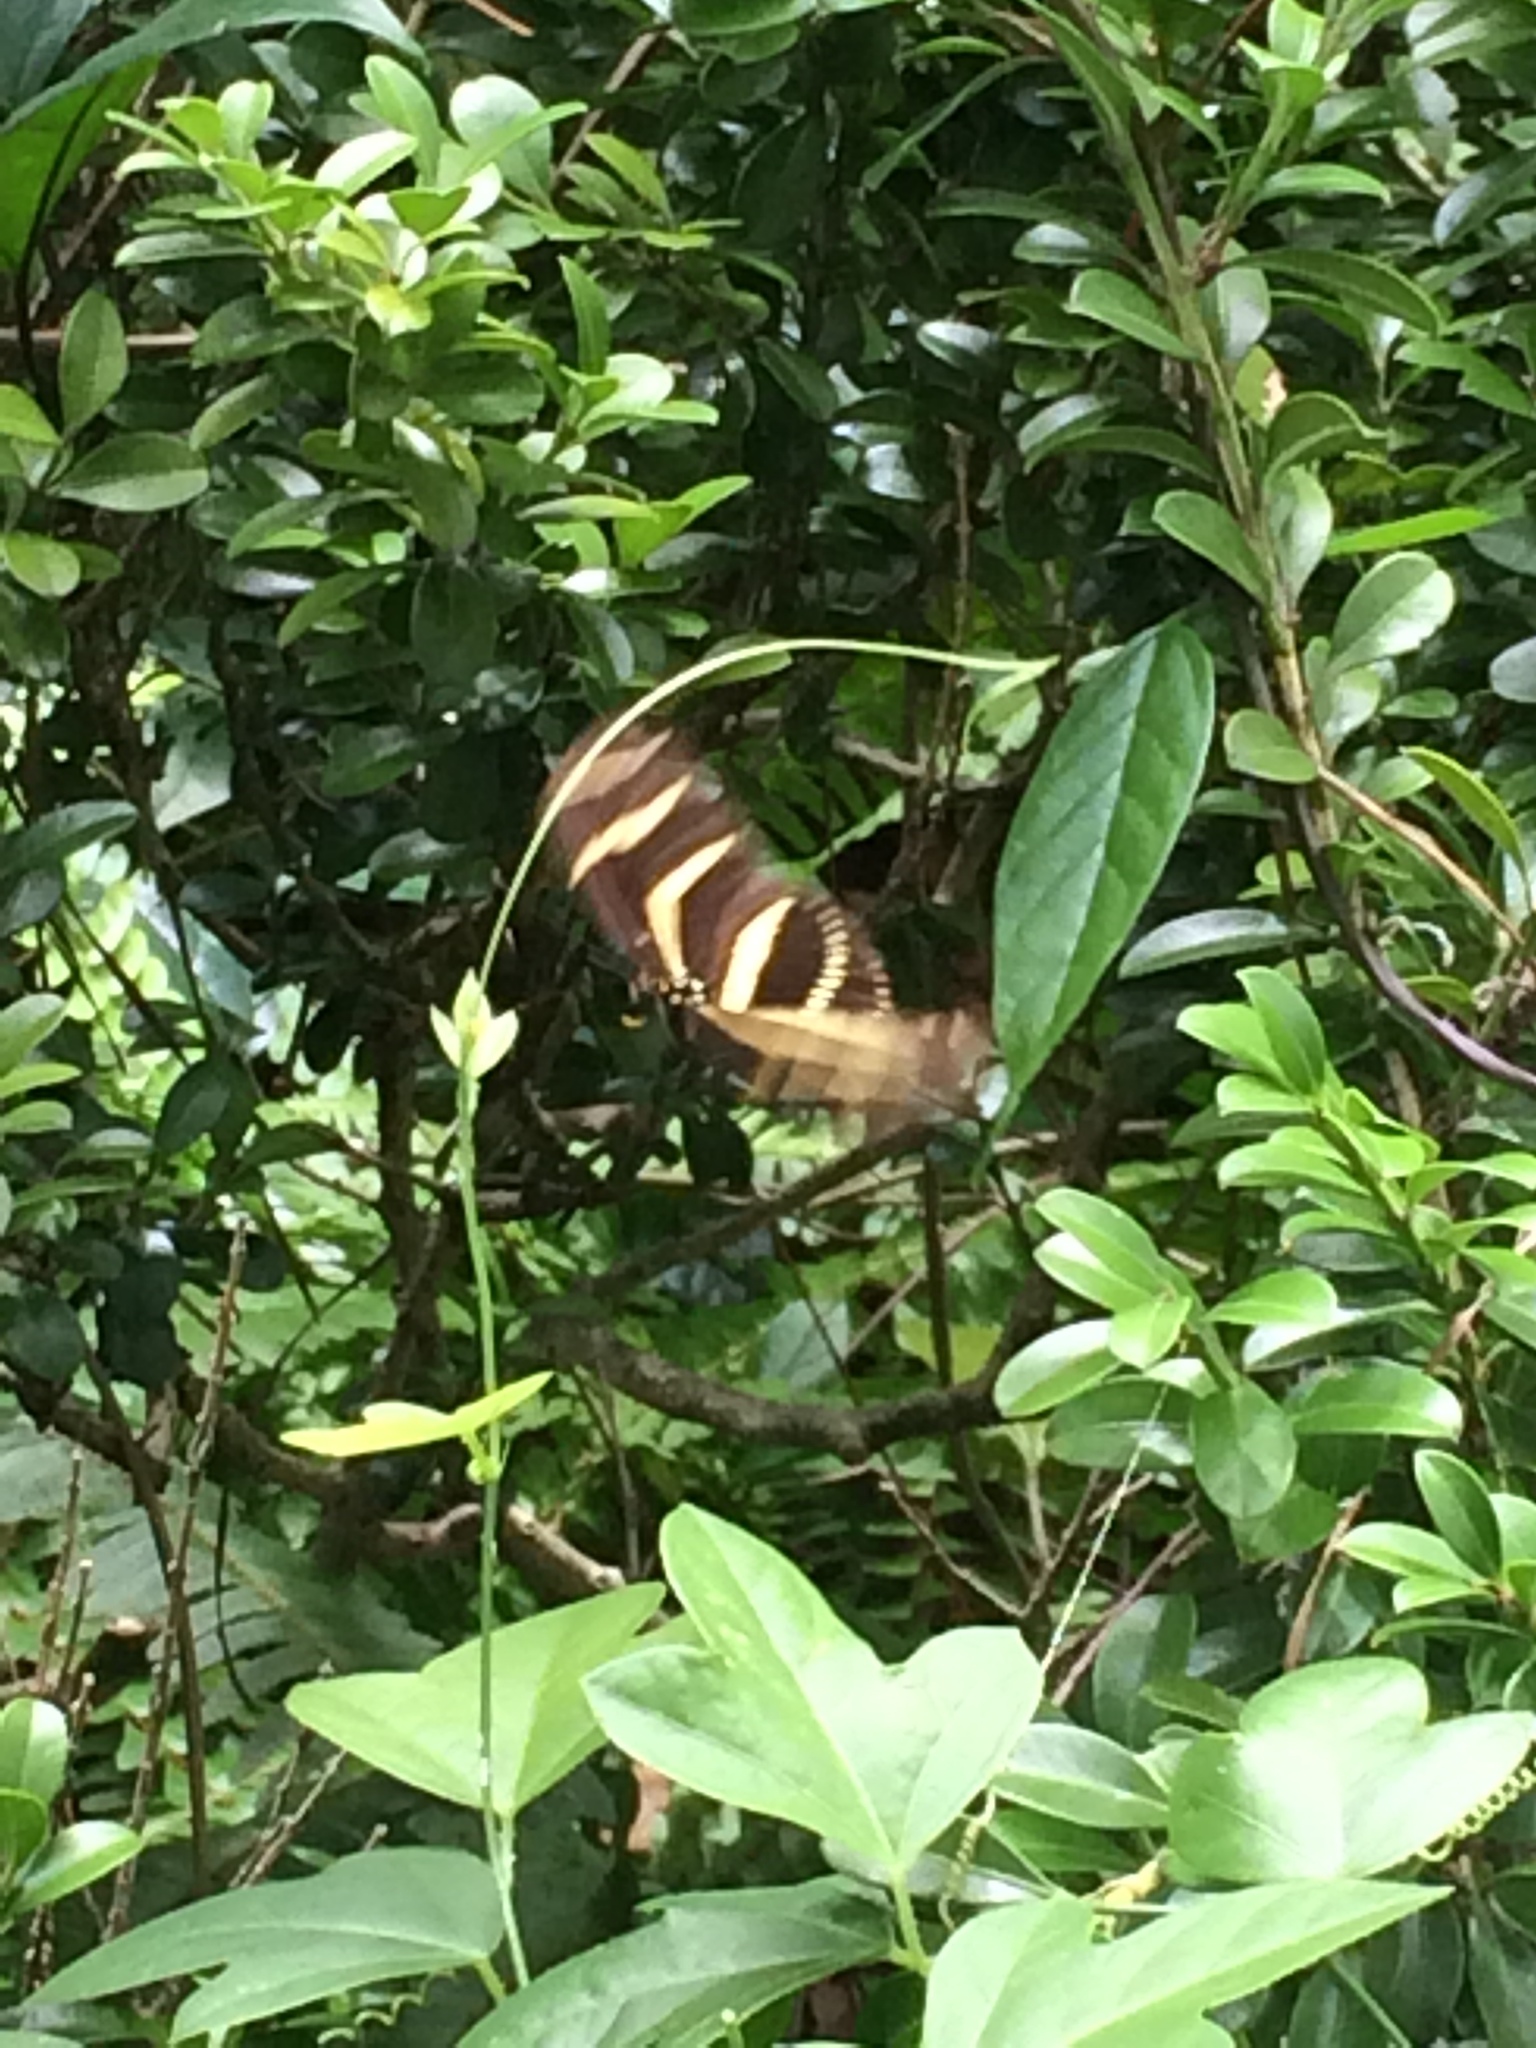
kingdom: Animalia
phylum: Arthropoda
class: Insecta
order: Lepidoptera
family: Nymphalidae
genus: Heliconius
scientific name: Heliconius charithonia
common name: Zebra long wing
